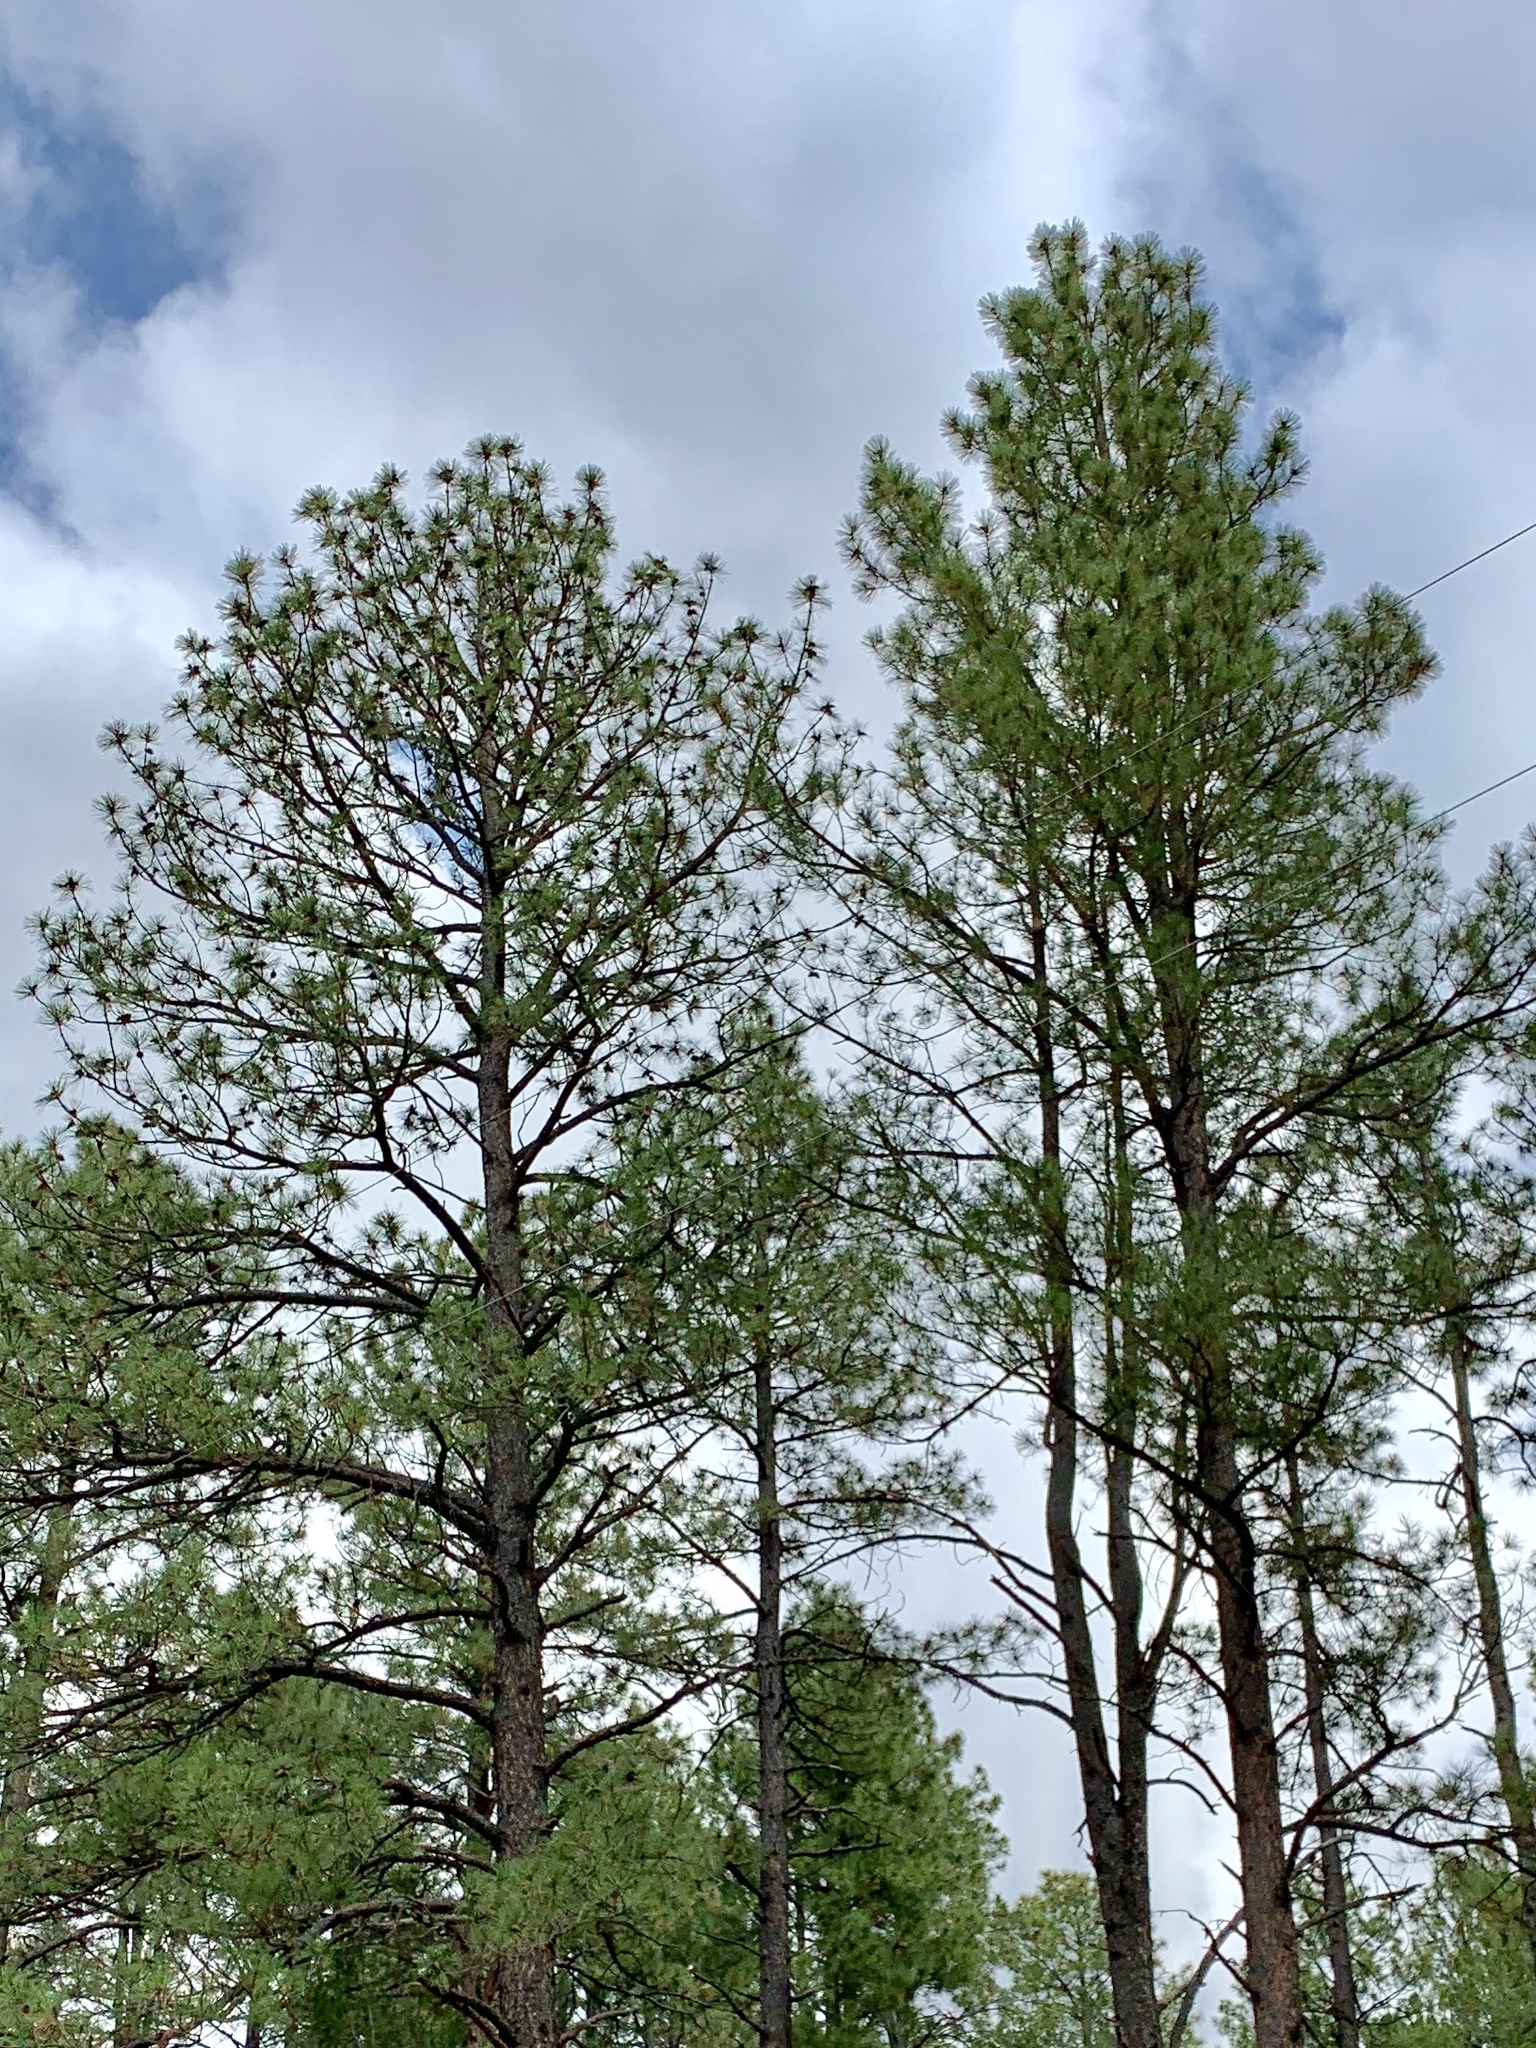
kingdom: Plantae
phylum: Tracheophyta
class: Pinopsida
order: Pinales
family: Pinaceae
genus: Pinus
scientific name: Pinus ponderosa
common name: Western yellow-pine
